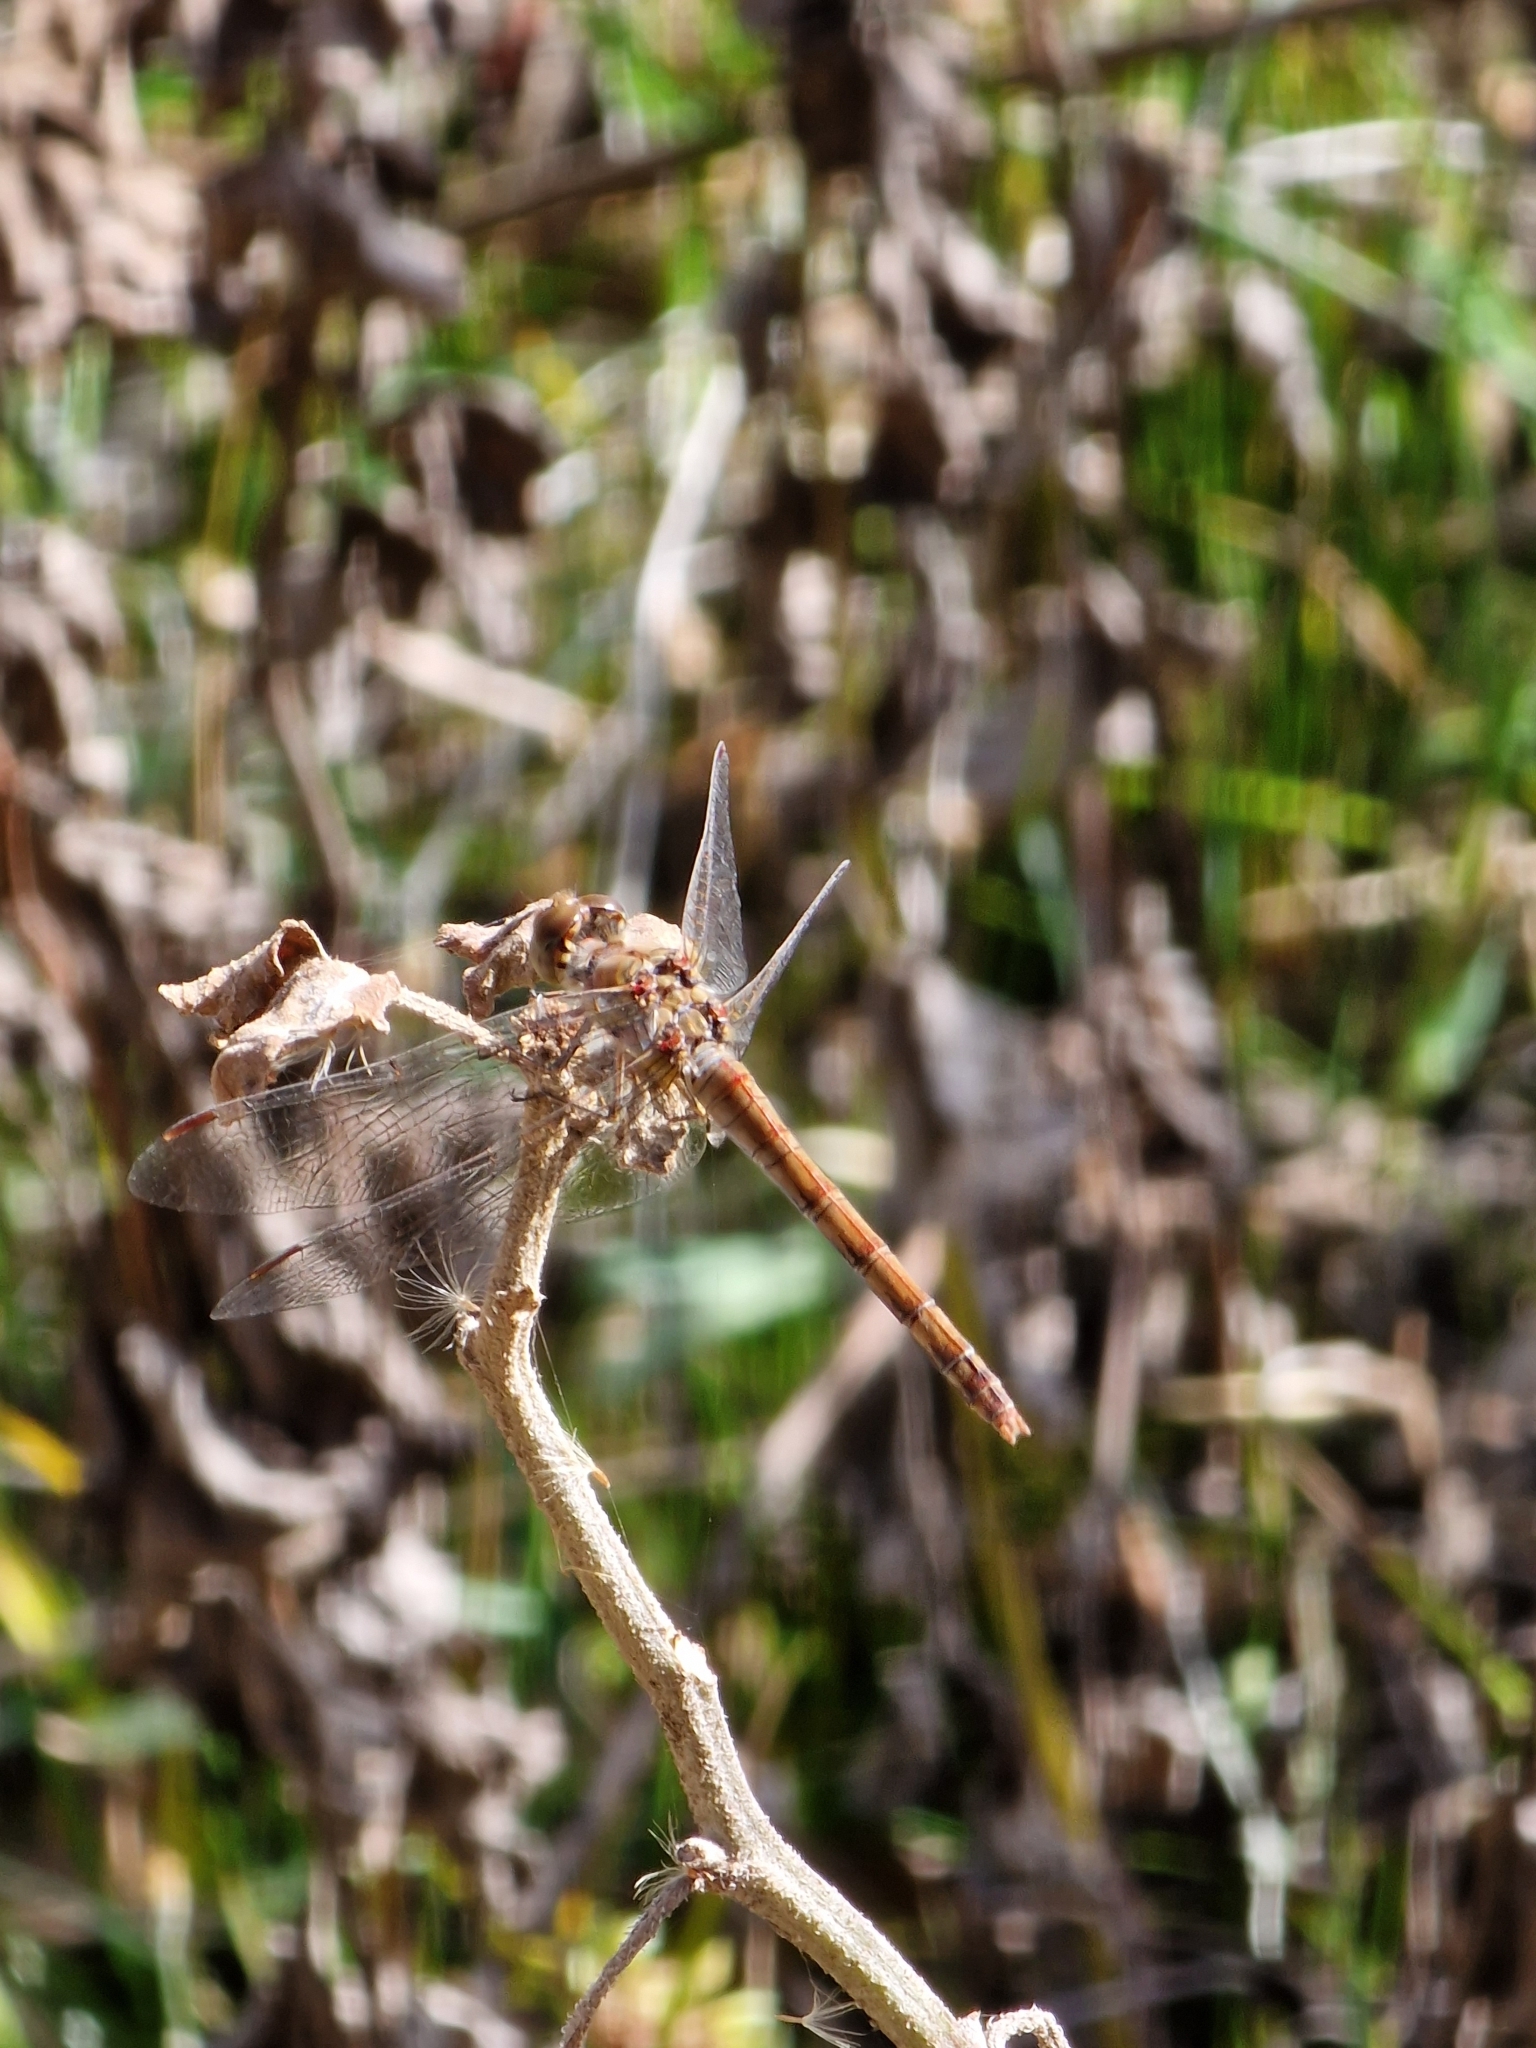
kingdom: Animalia
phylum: Arthropoda
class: Insecta
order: Odonata
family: Libellulidae
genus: Sympetrum
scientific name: Sympetrum striolatum
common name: Common darter
